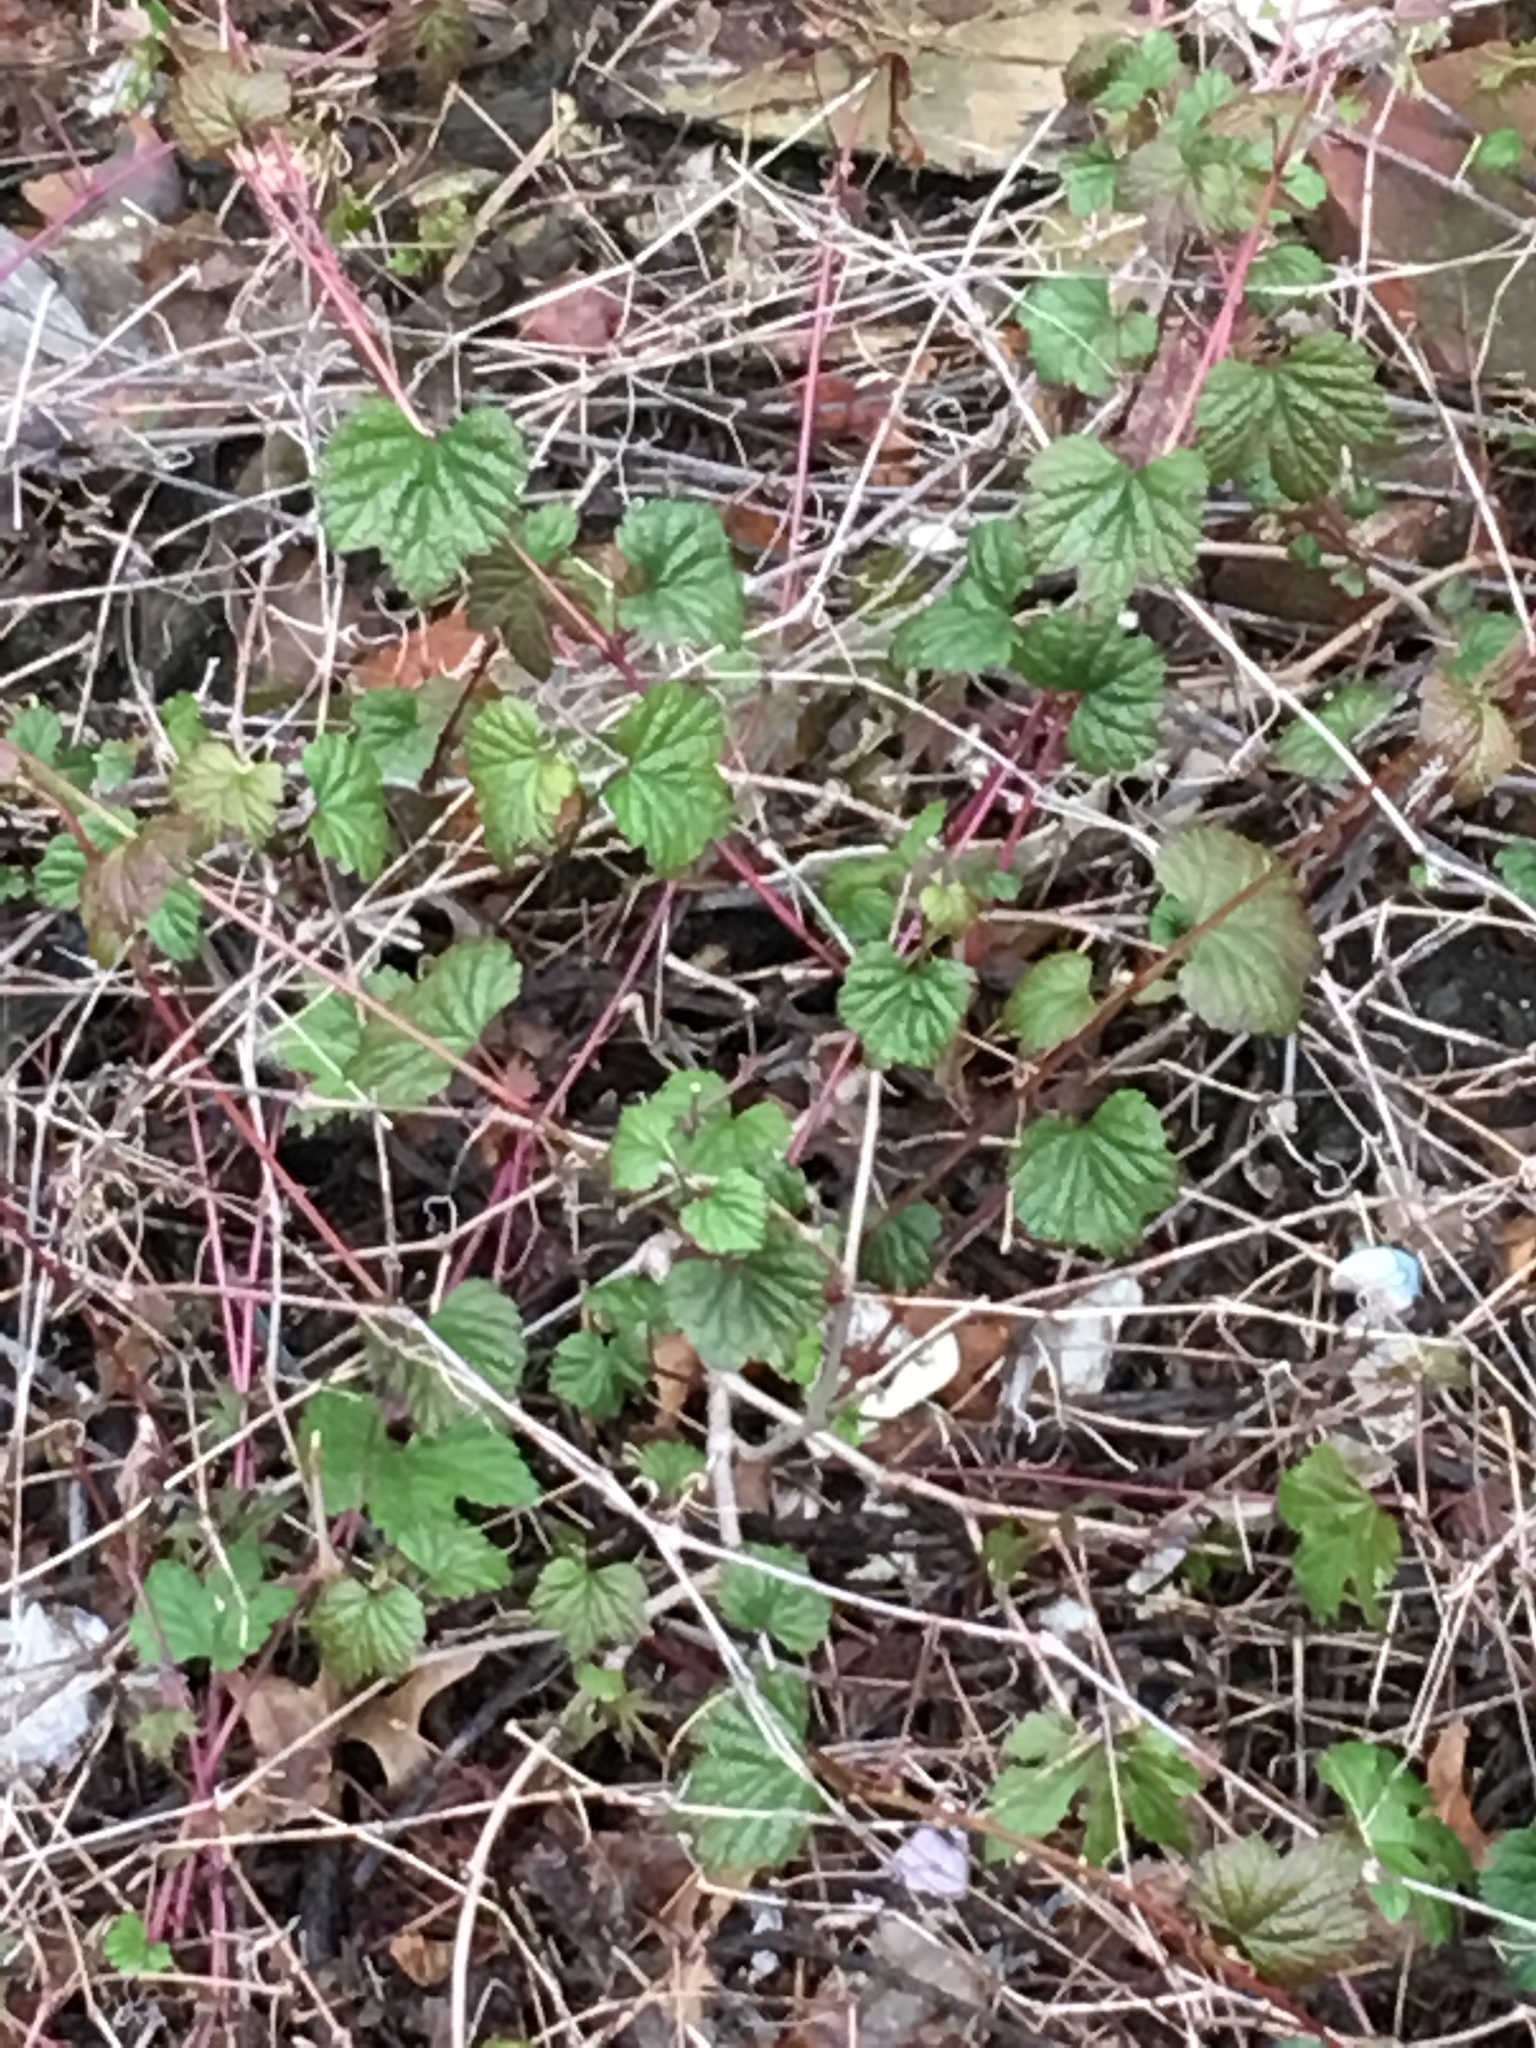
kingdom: Plantae
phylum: Tracheophyta
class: Magnoliopsida
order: Vitales
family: Vitaceae
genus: Ampelopsis
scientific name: Ampelopsis glandulosa
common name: Amur peppervine
